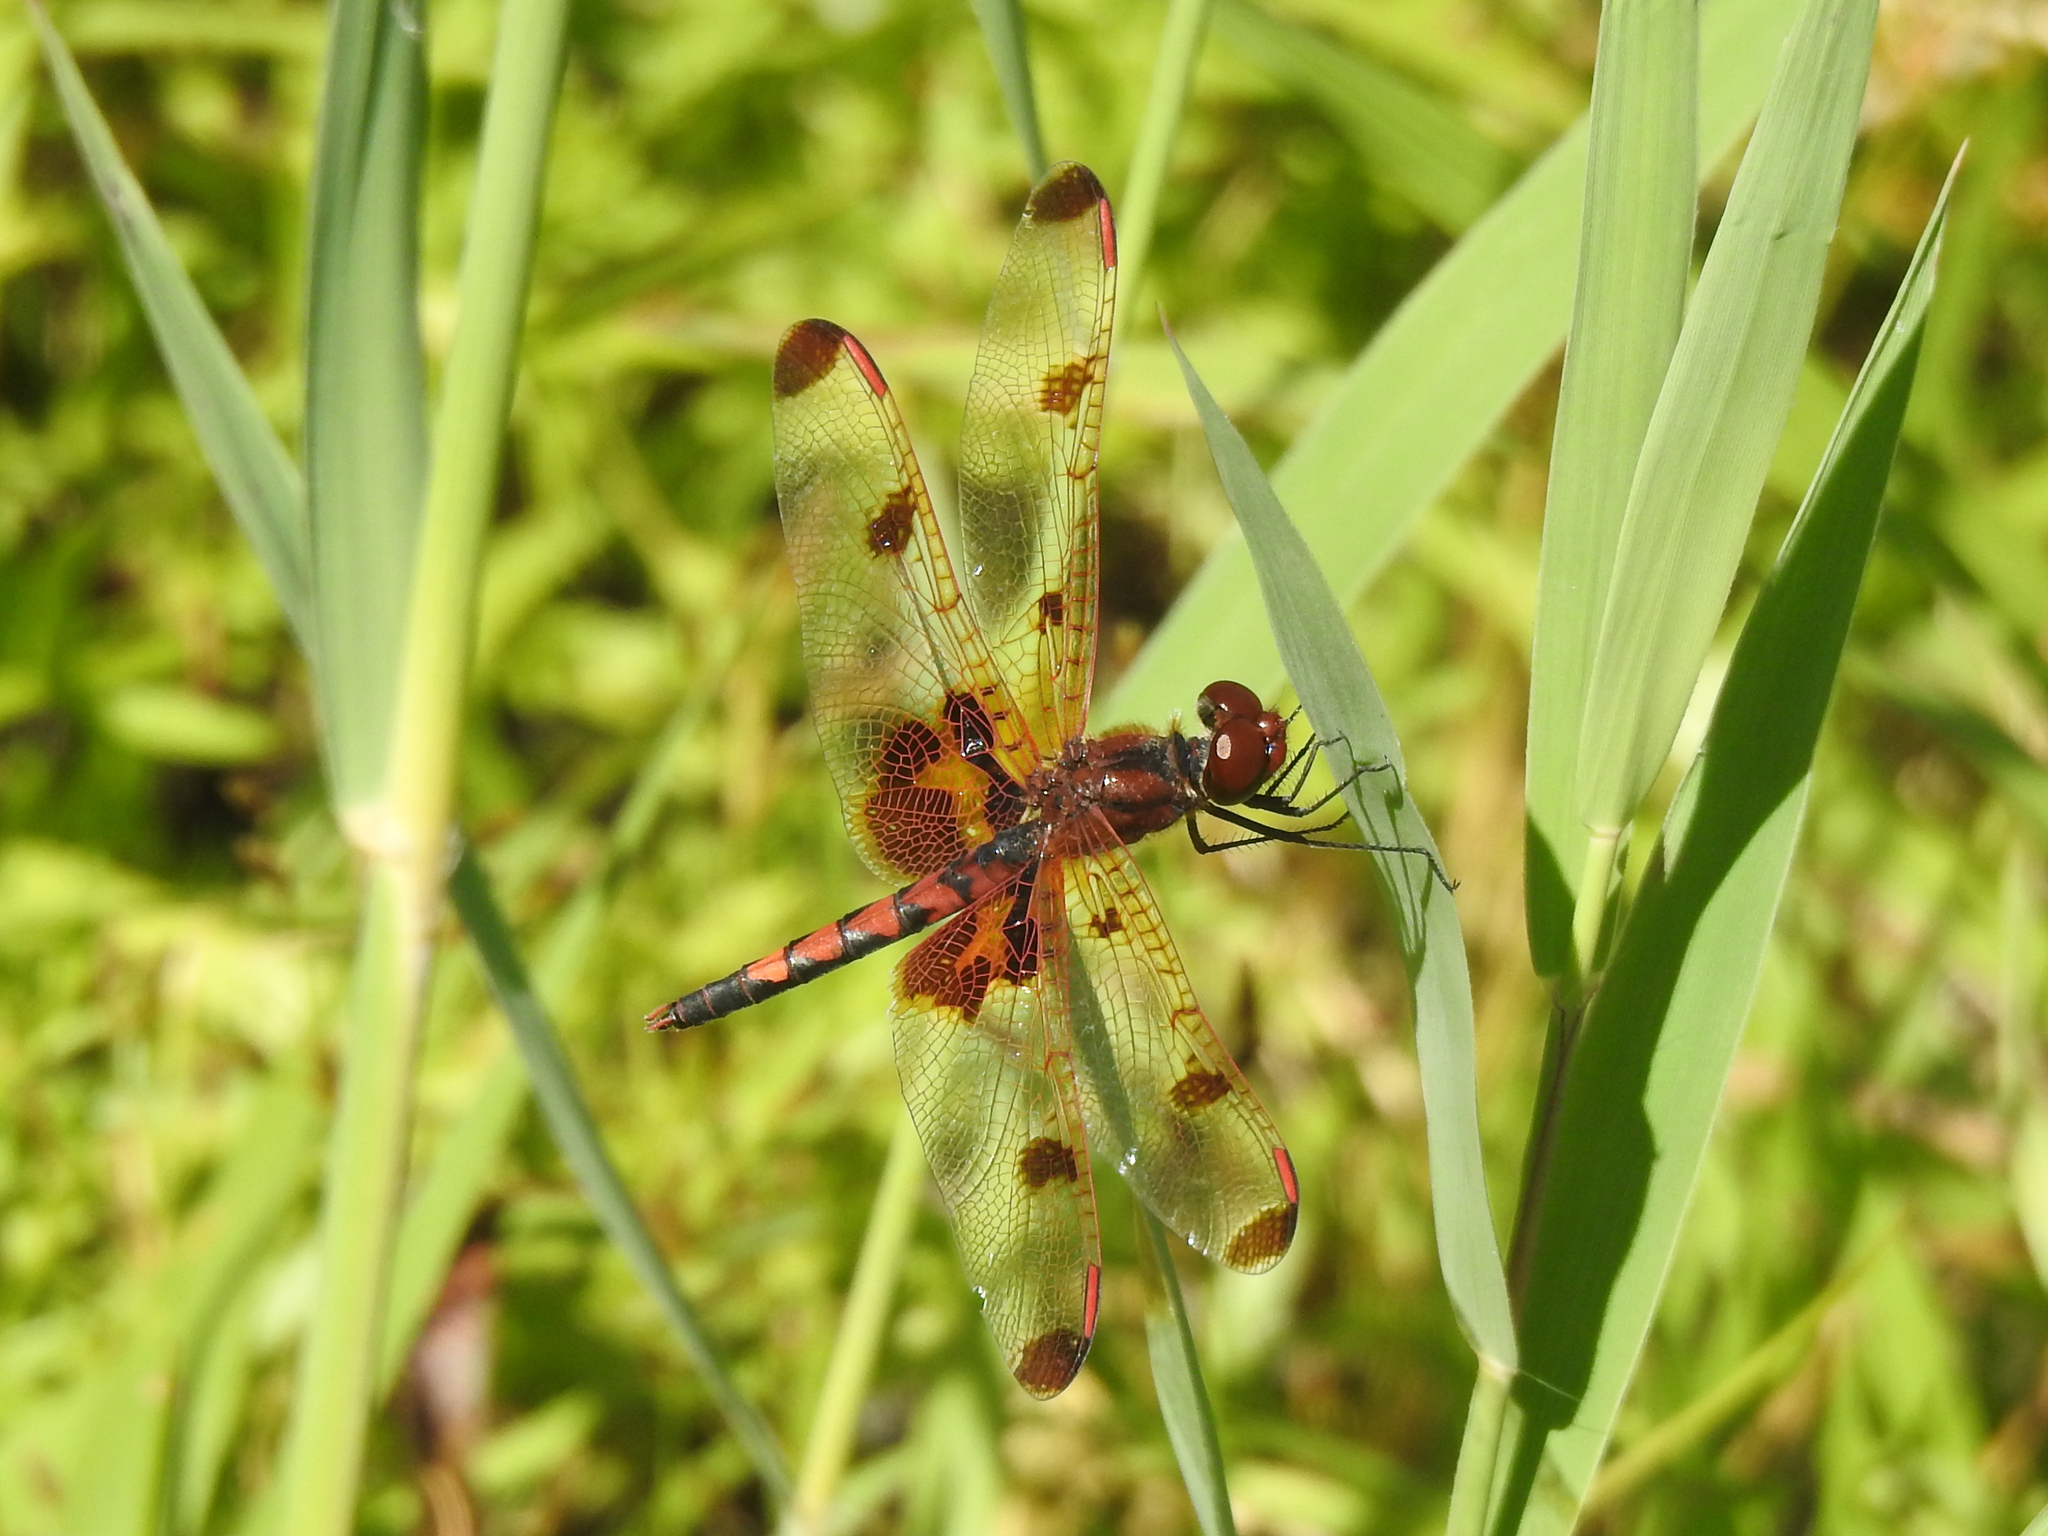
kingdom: Animalia
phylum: Arthropoda
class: Insecta
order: Odonata
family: Libellulidae
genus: Celithemis
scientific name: Celithemis elisa
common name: Calico pennant
